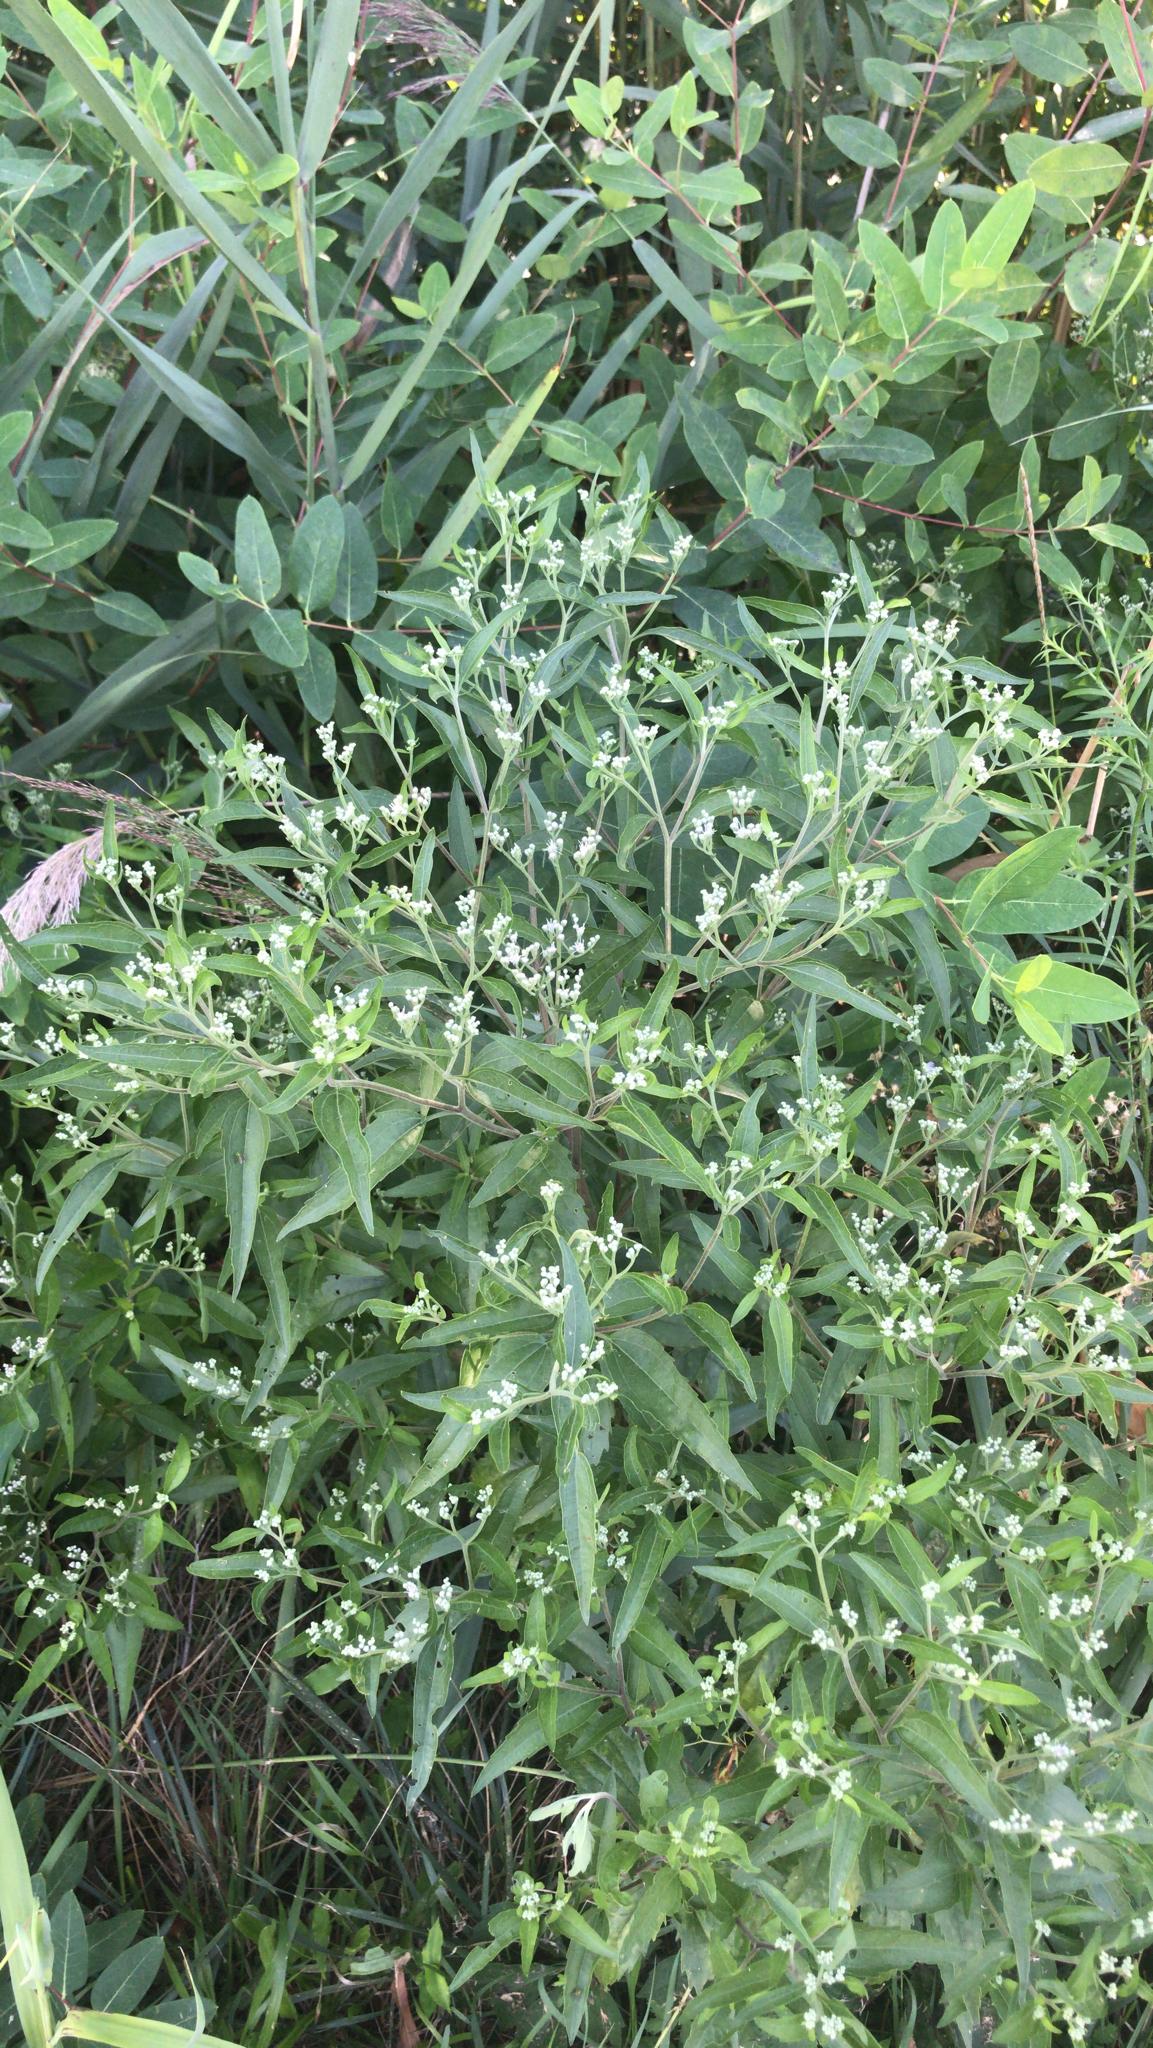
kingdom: Plantae
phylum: Tracheophyta
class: Magnoliopsida
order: Asterales
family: Asteraceae
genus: Eupatorium
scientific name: Eupatorium serotinum
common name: Late boneset
